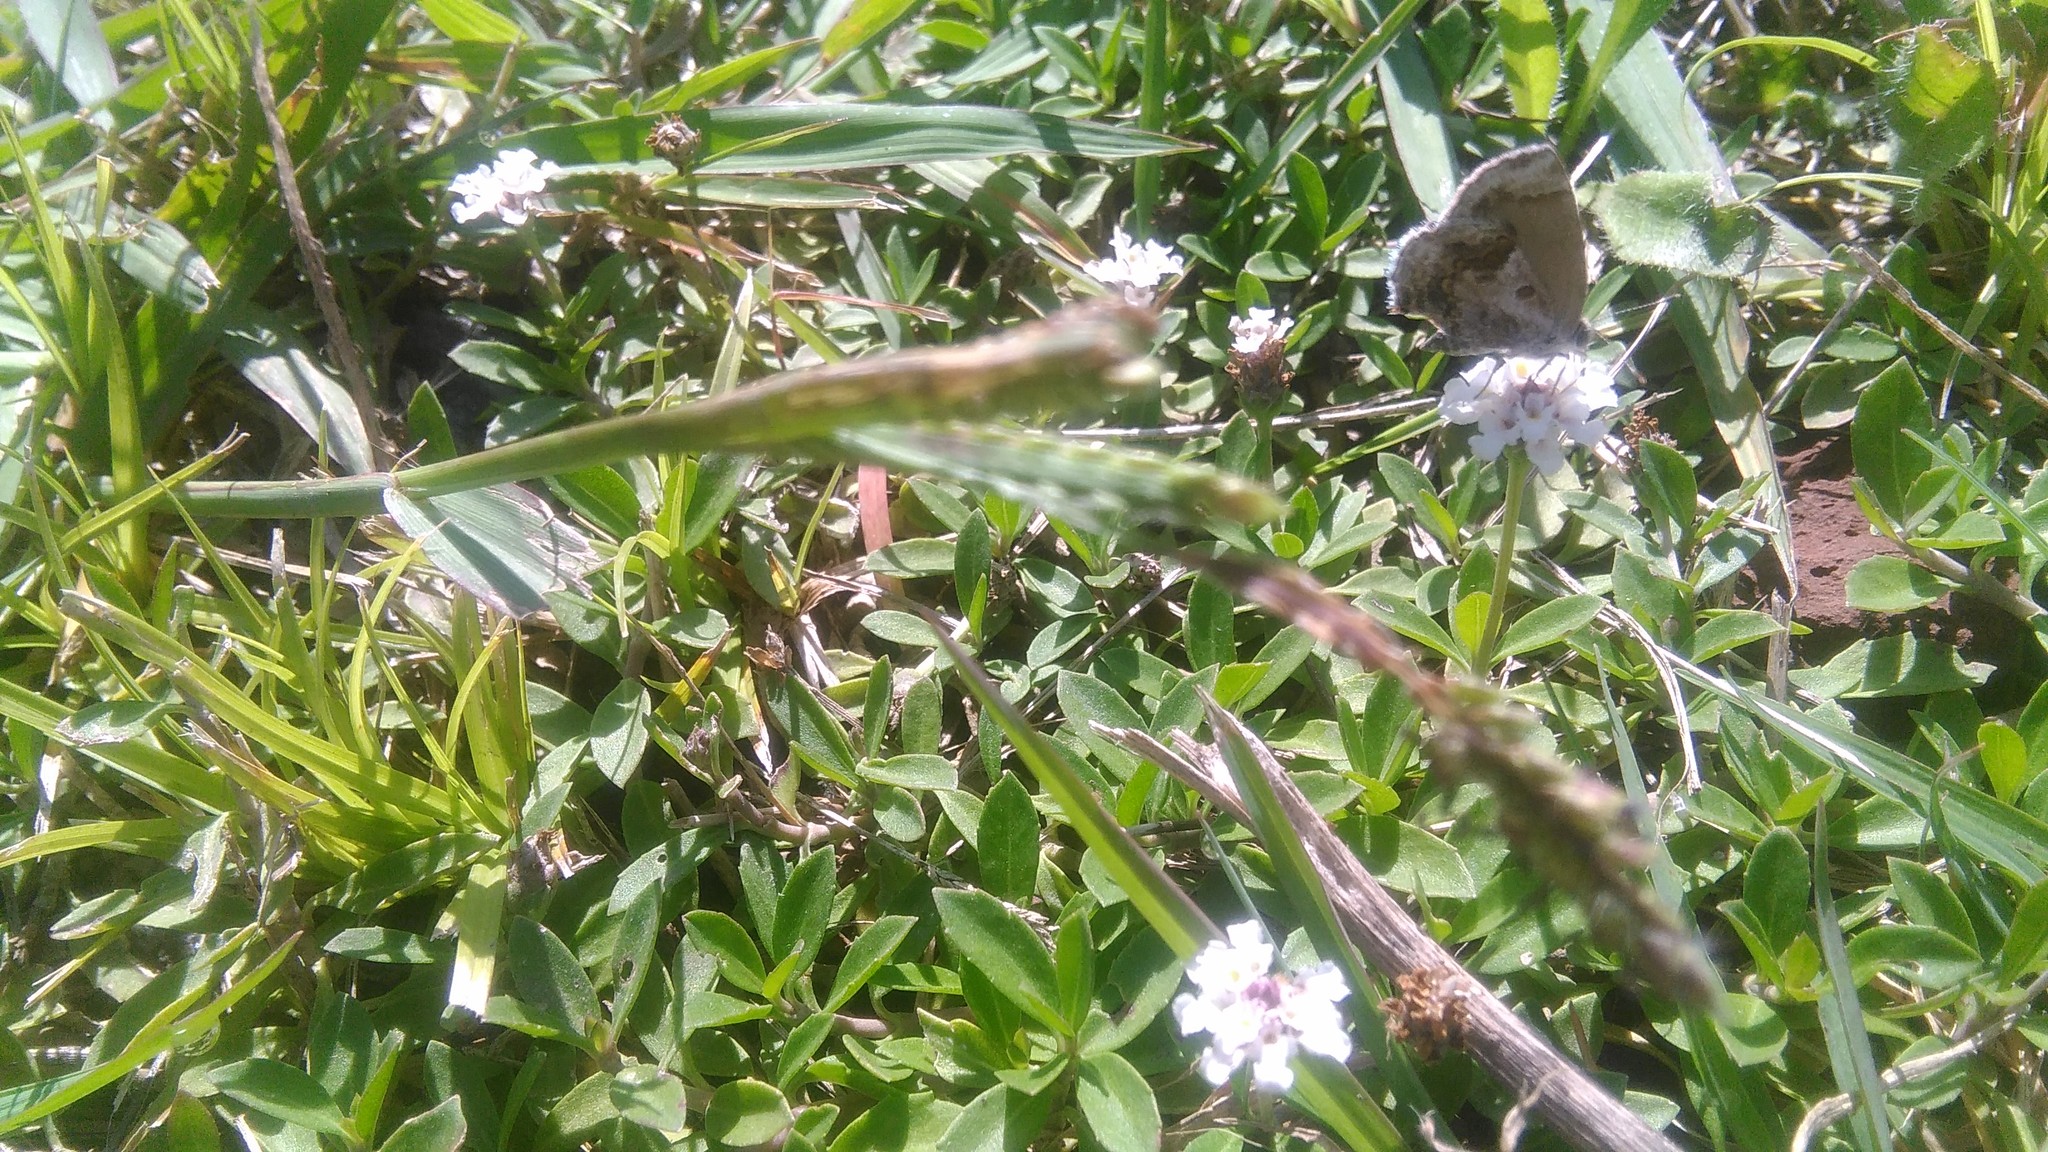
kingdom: Animalia
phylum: Arthropoda
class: Insecta
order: Lepidoptera
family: Lycaenidae
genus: Strymon
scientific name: Strymon bazochii
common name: Lantana scrub-hairstreak
